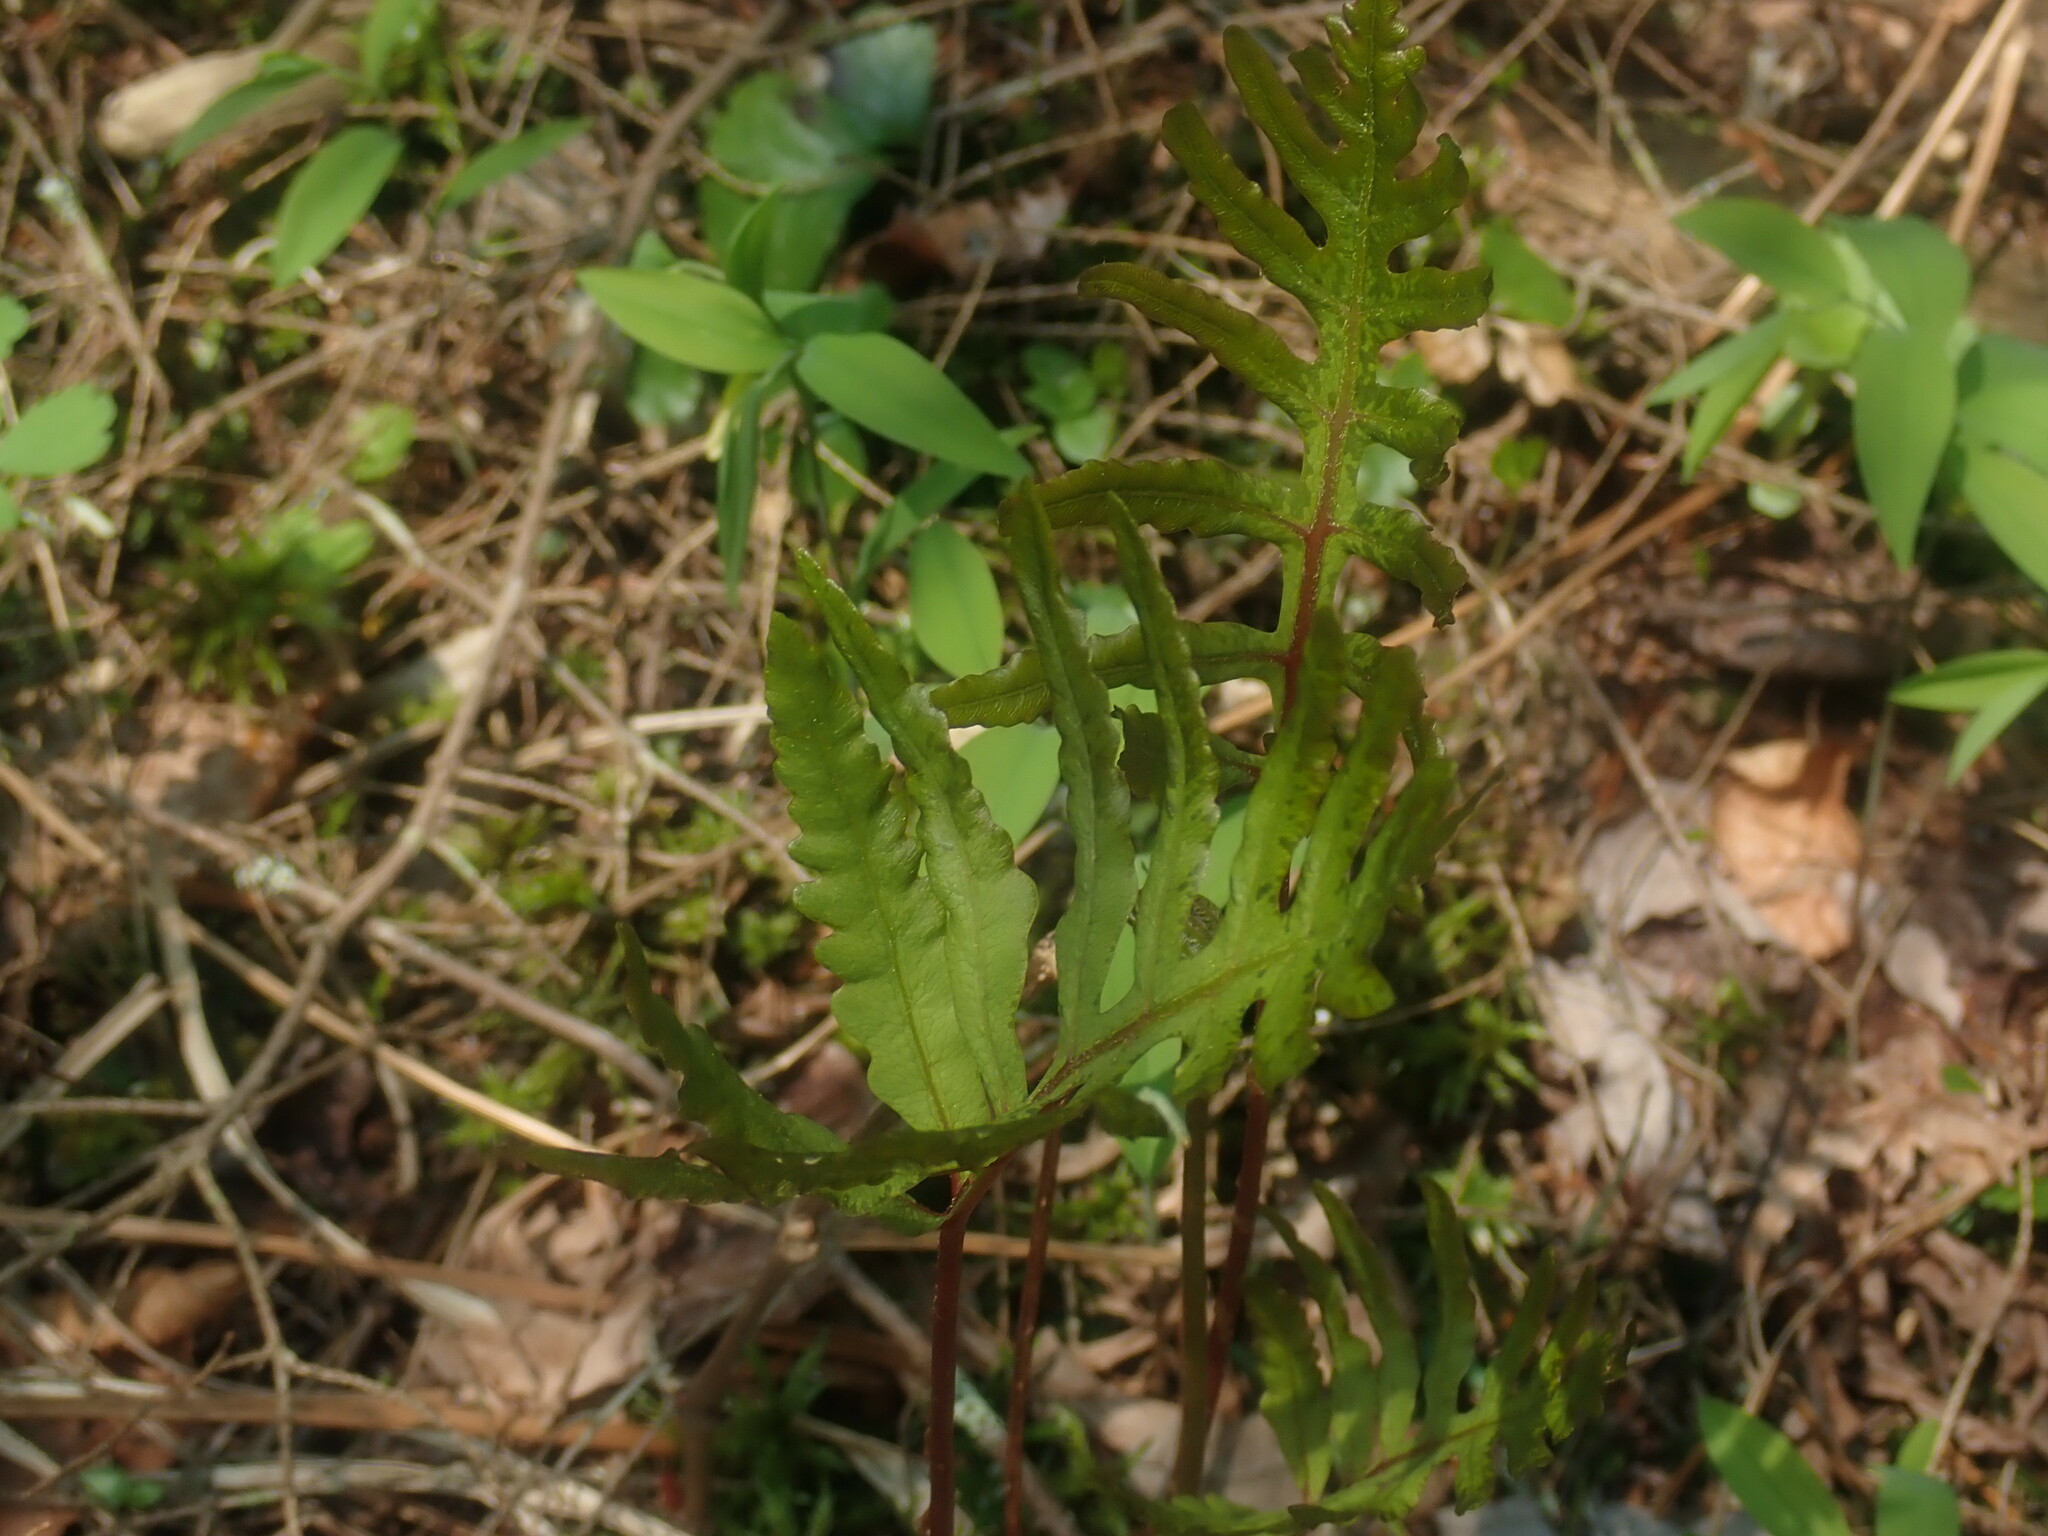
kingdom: Plantae
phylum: Tracheophyta
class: Polypodiopsida
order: Polypodiales
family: Onocleaceae
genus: Onoclea
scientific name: Onoclea sensibilis
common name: Sensitive fern
